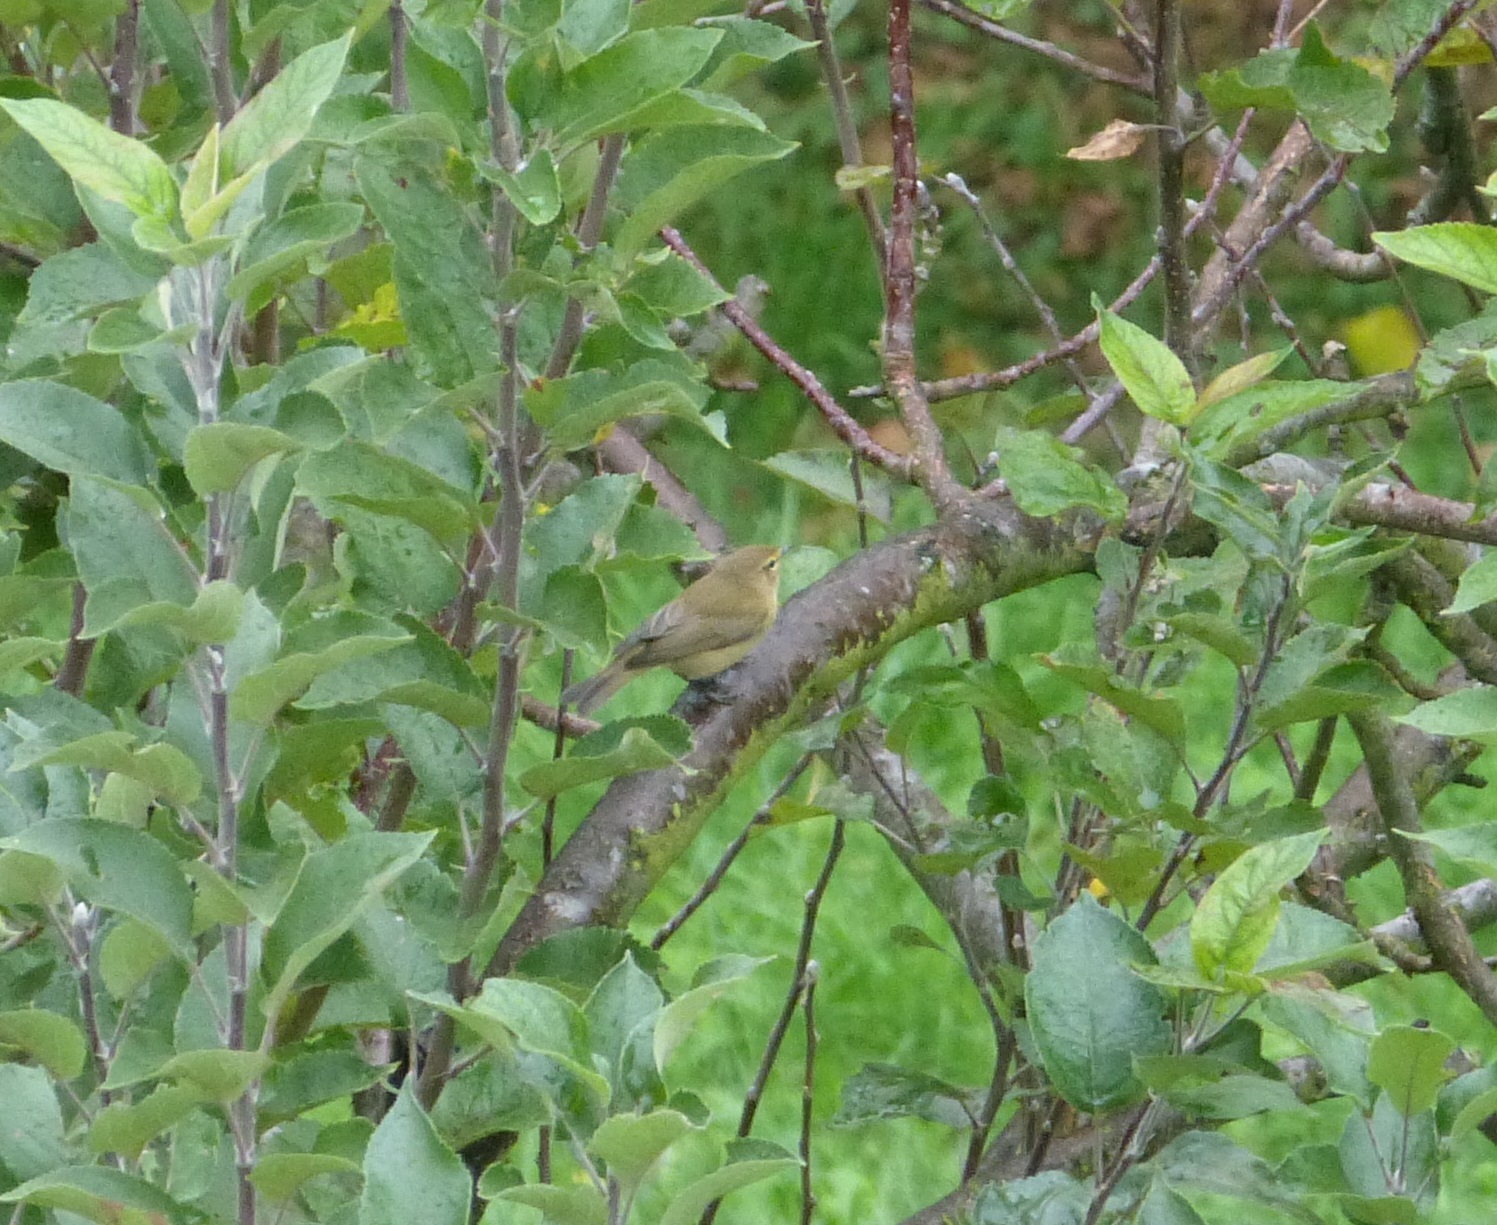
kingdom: Animalia
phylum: Chordata
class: Aves
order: Passeriformes
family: Phylloscopidae
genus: Phylloscopus
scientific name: Phylloscopus collybita
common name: Common chiffchaff
